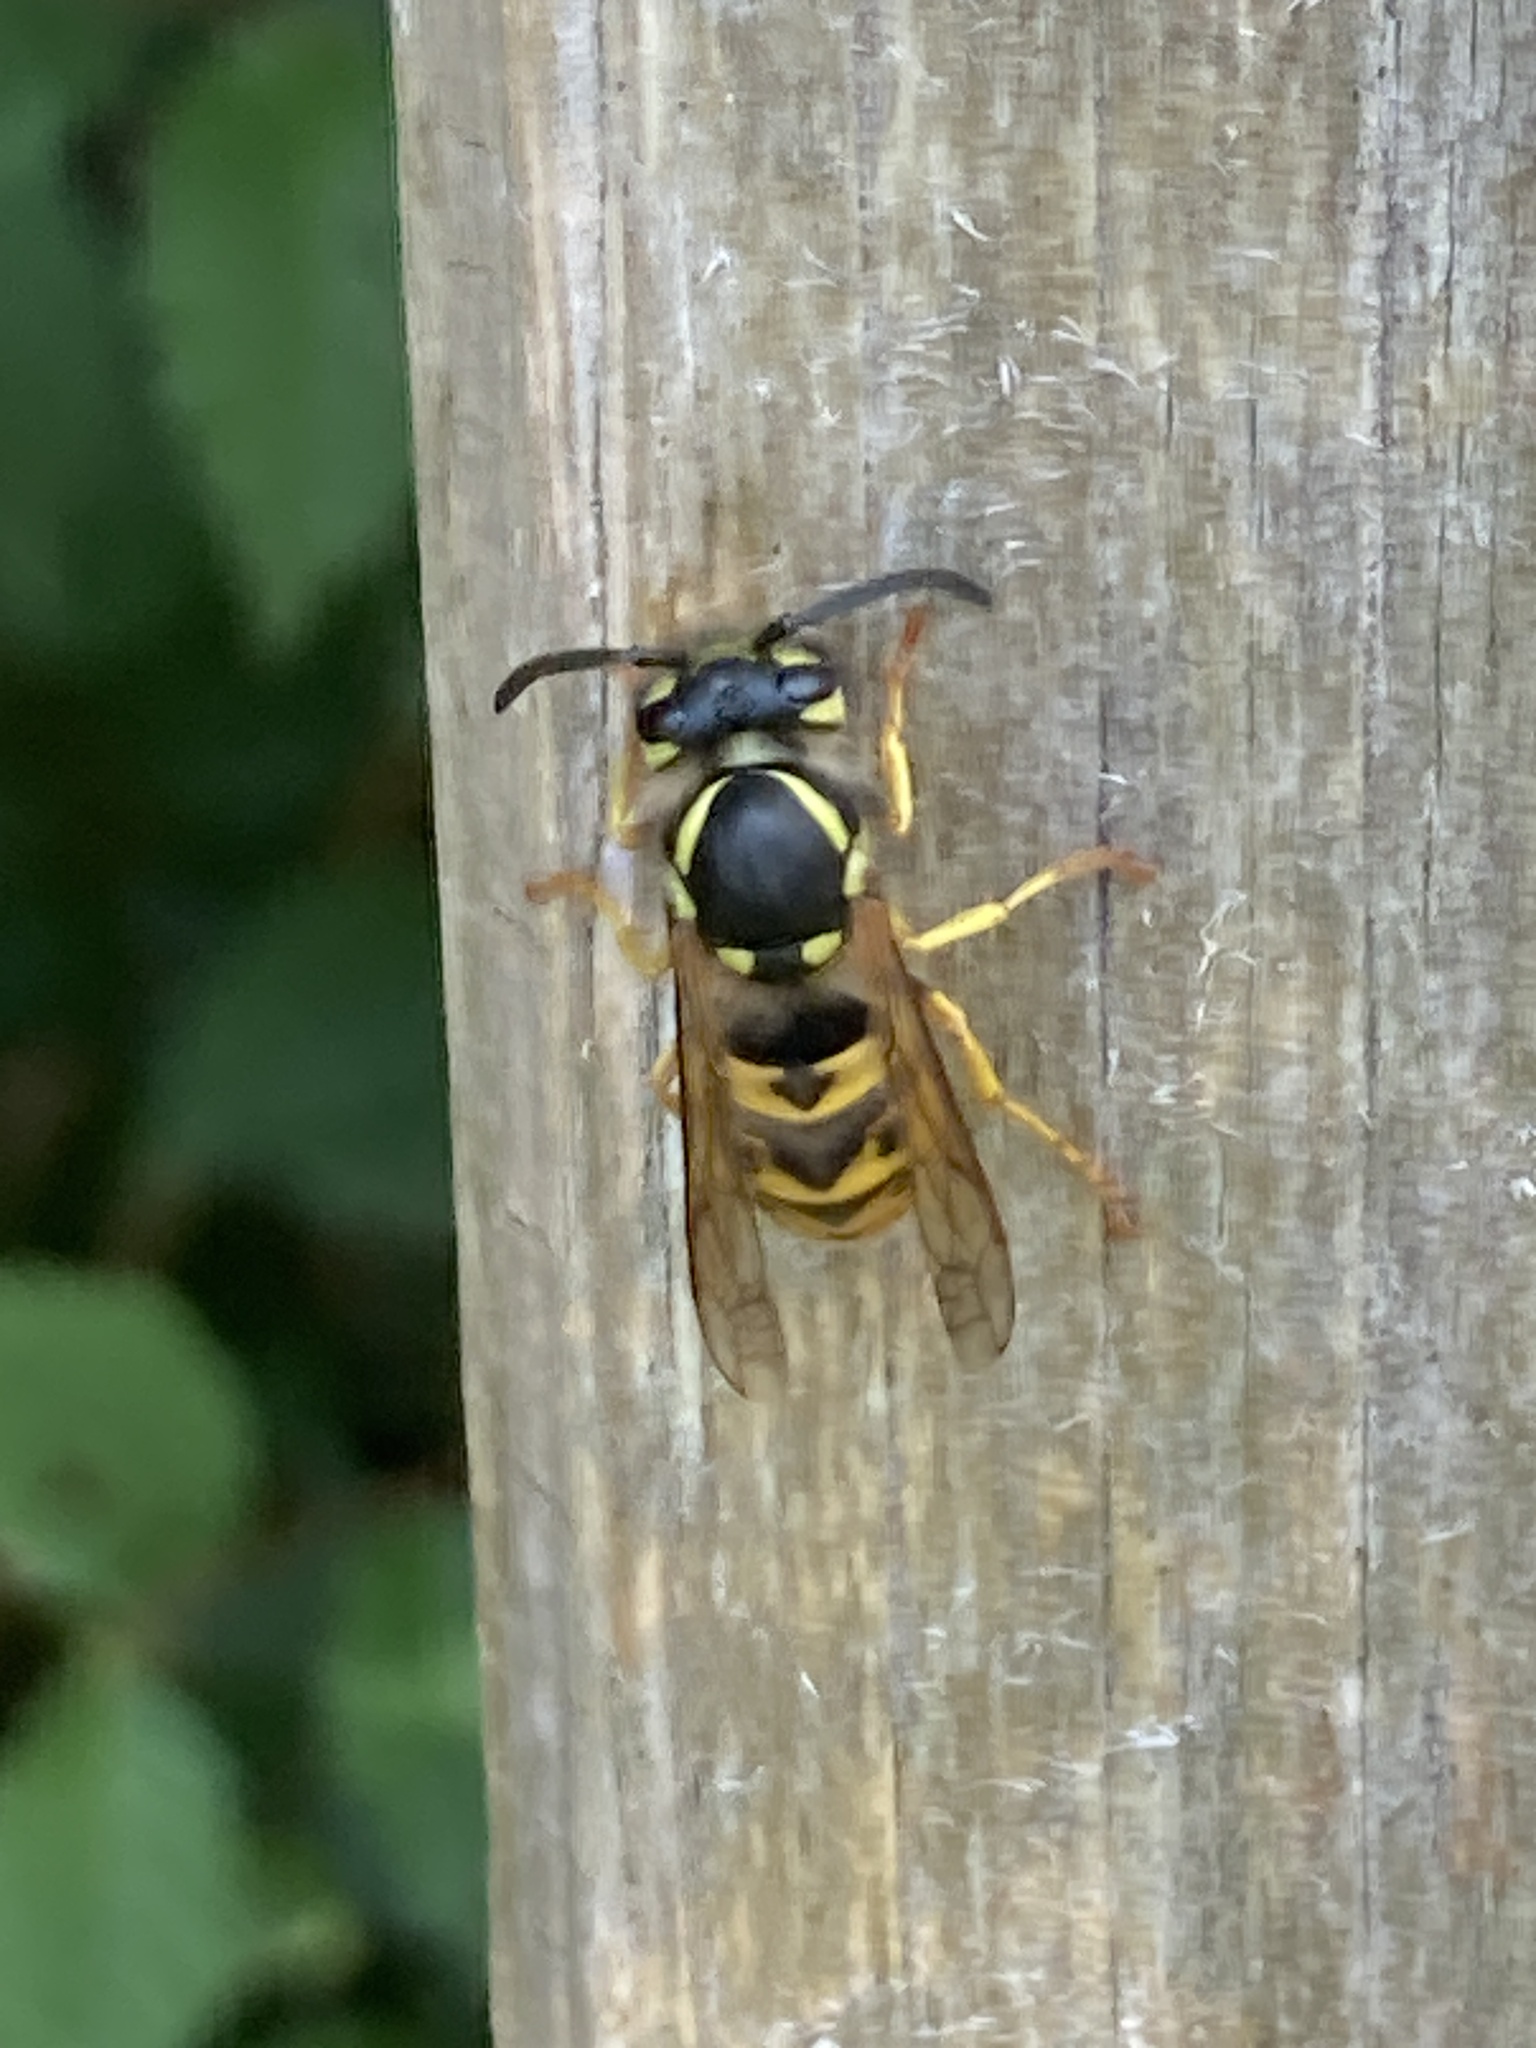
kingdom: Animalia
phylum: Arthropoda
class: Insecta
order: Hymenoptera
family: Vespidae
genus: Vespula
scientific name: Vespula germanica
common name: German wasp
